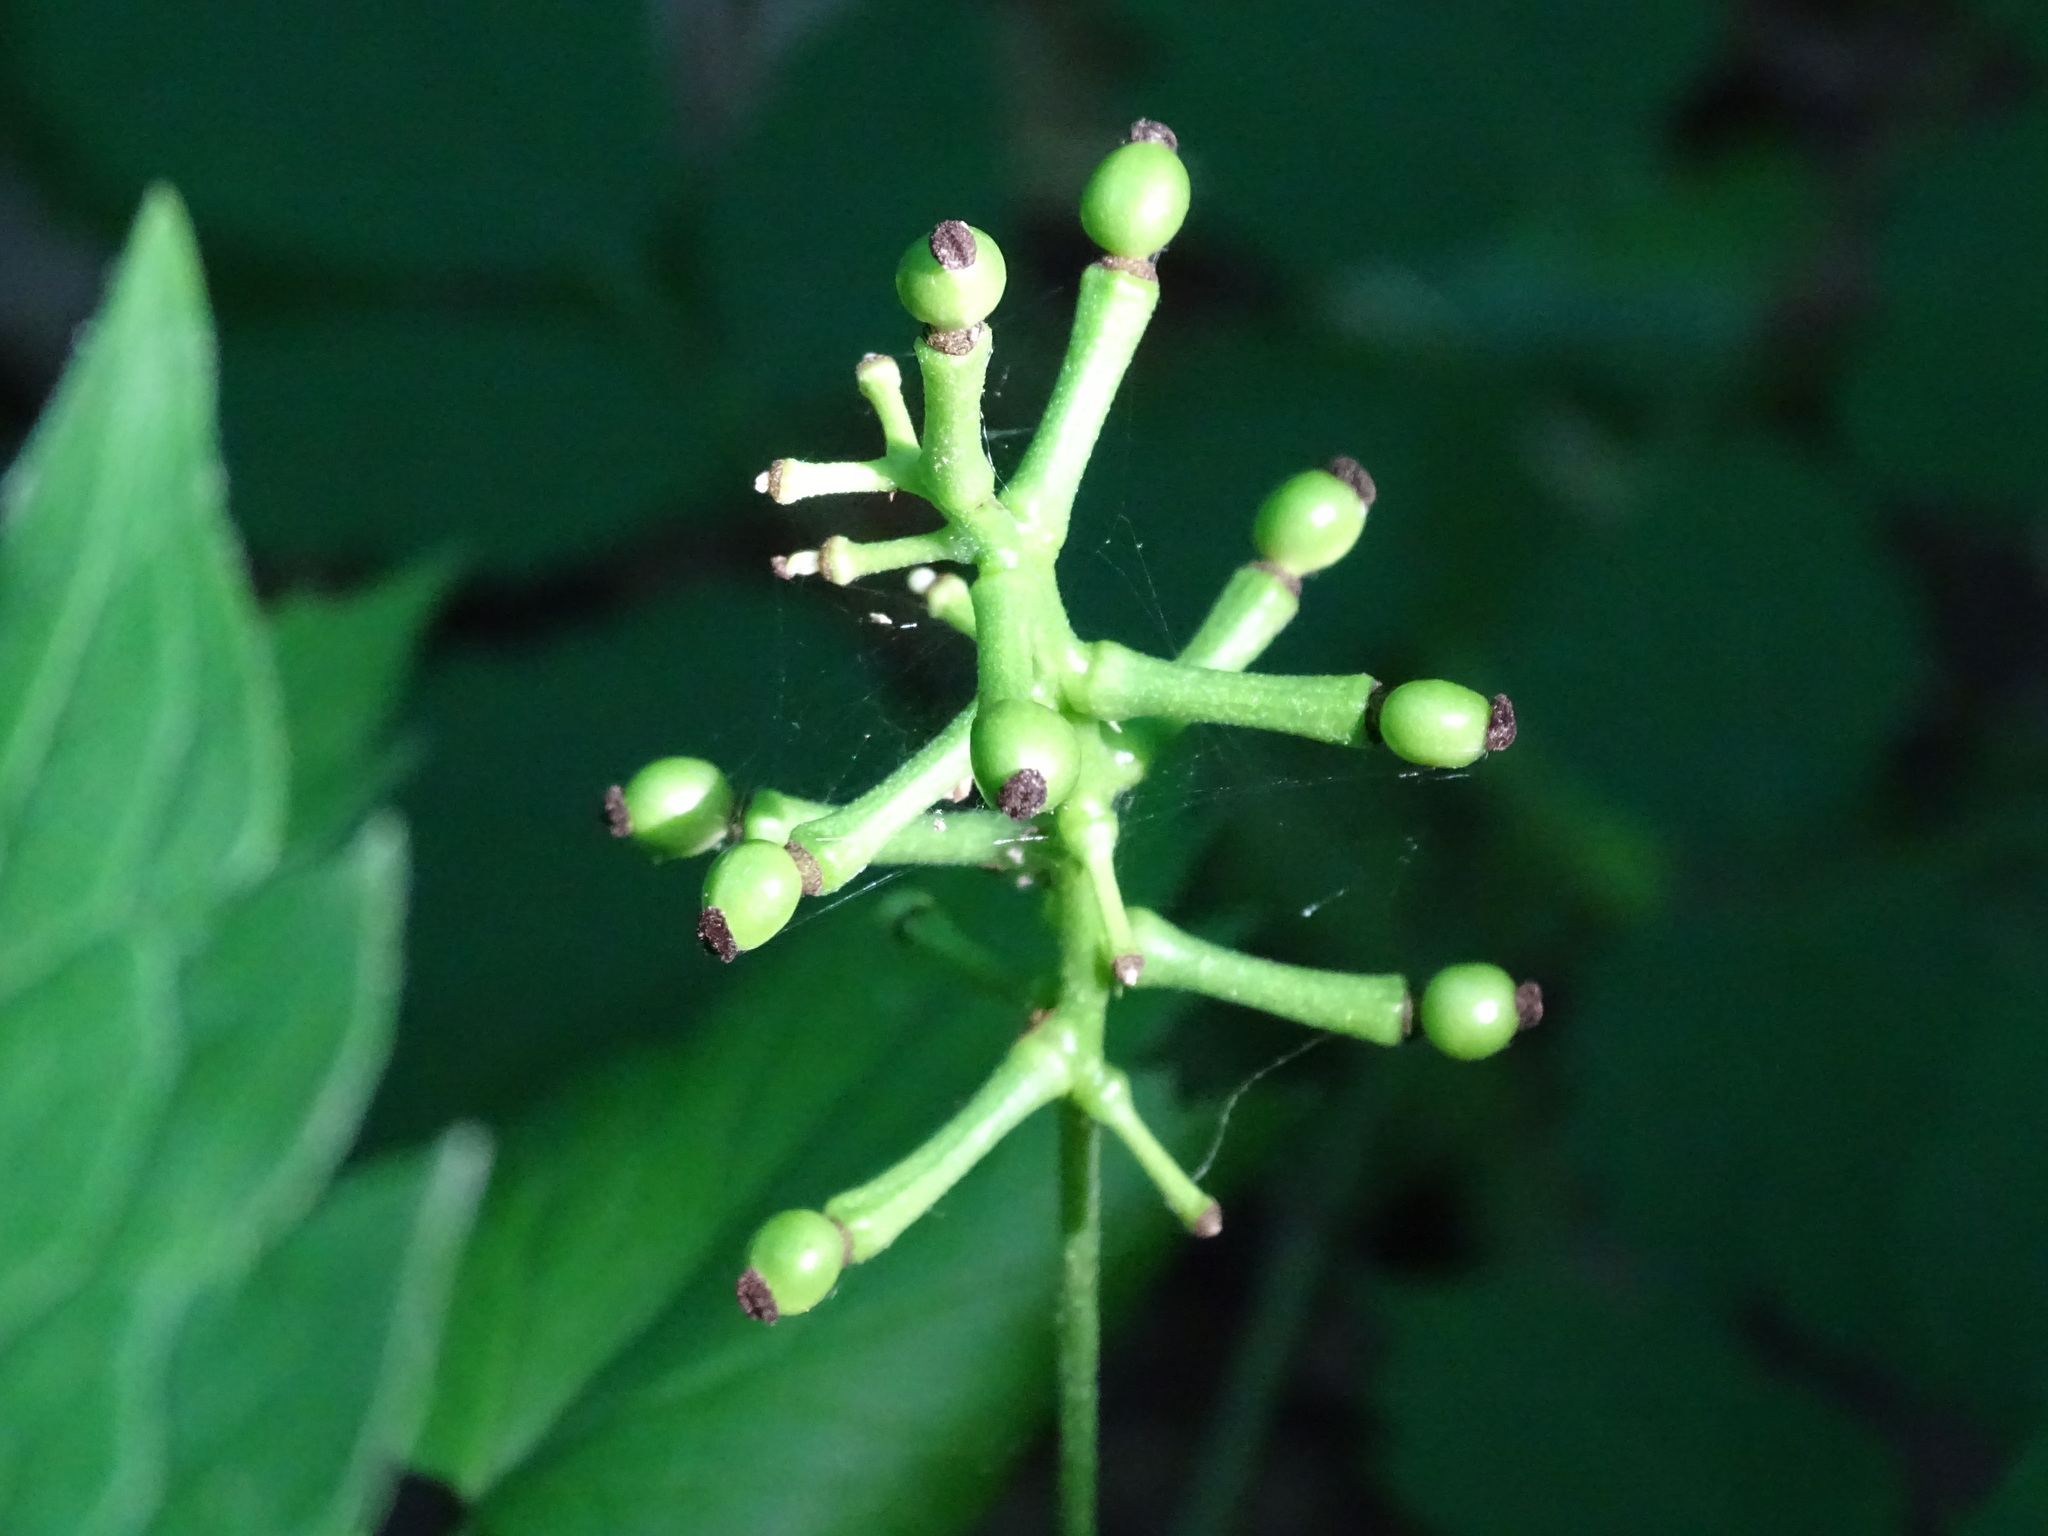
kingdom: Plantae
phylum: Tracheophyta
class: Magnoliopsida
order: Ranunculales
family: Ranunculaceae
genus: Actaea
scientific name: Actaea pachypoda
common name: Doll's-eyes
